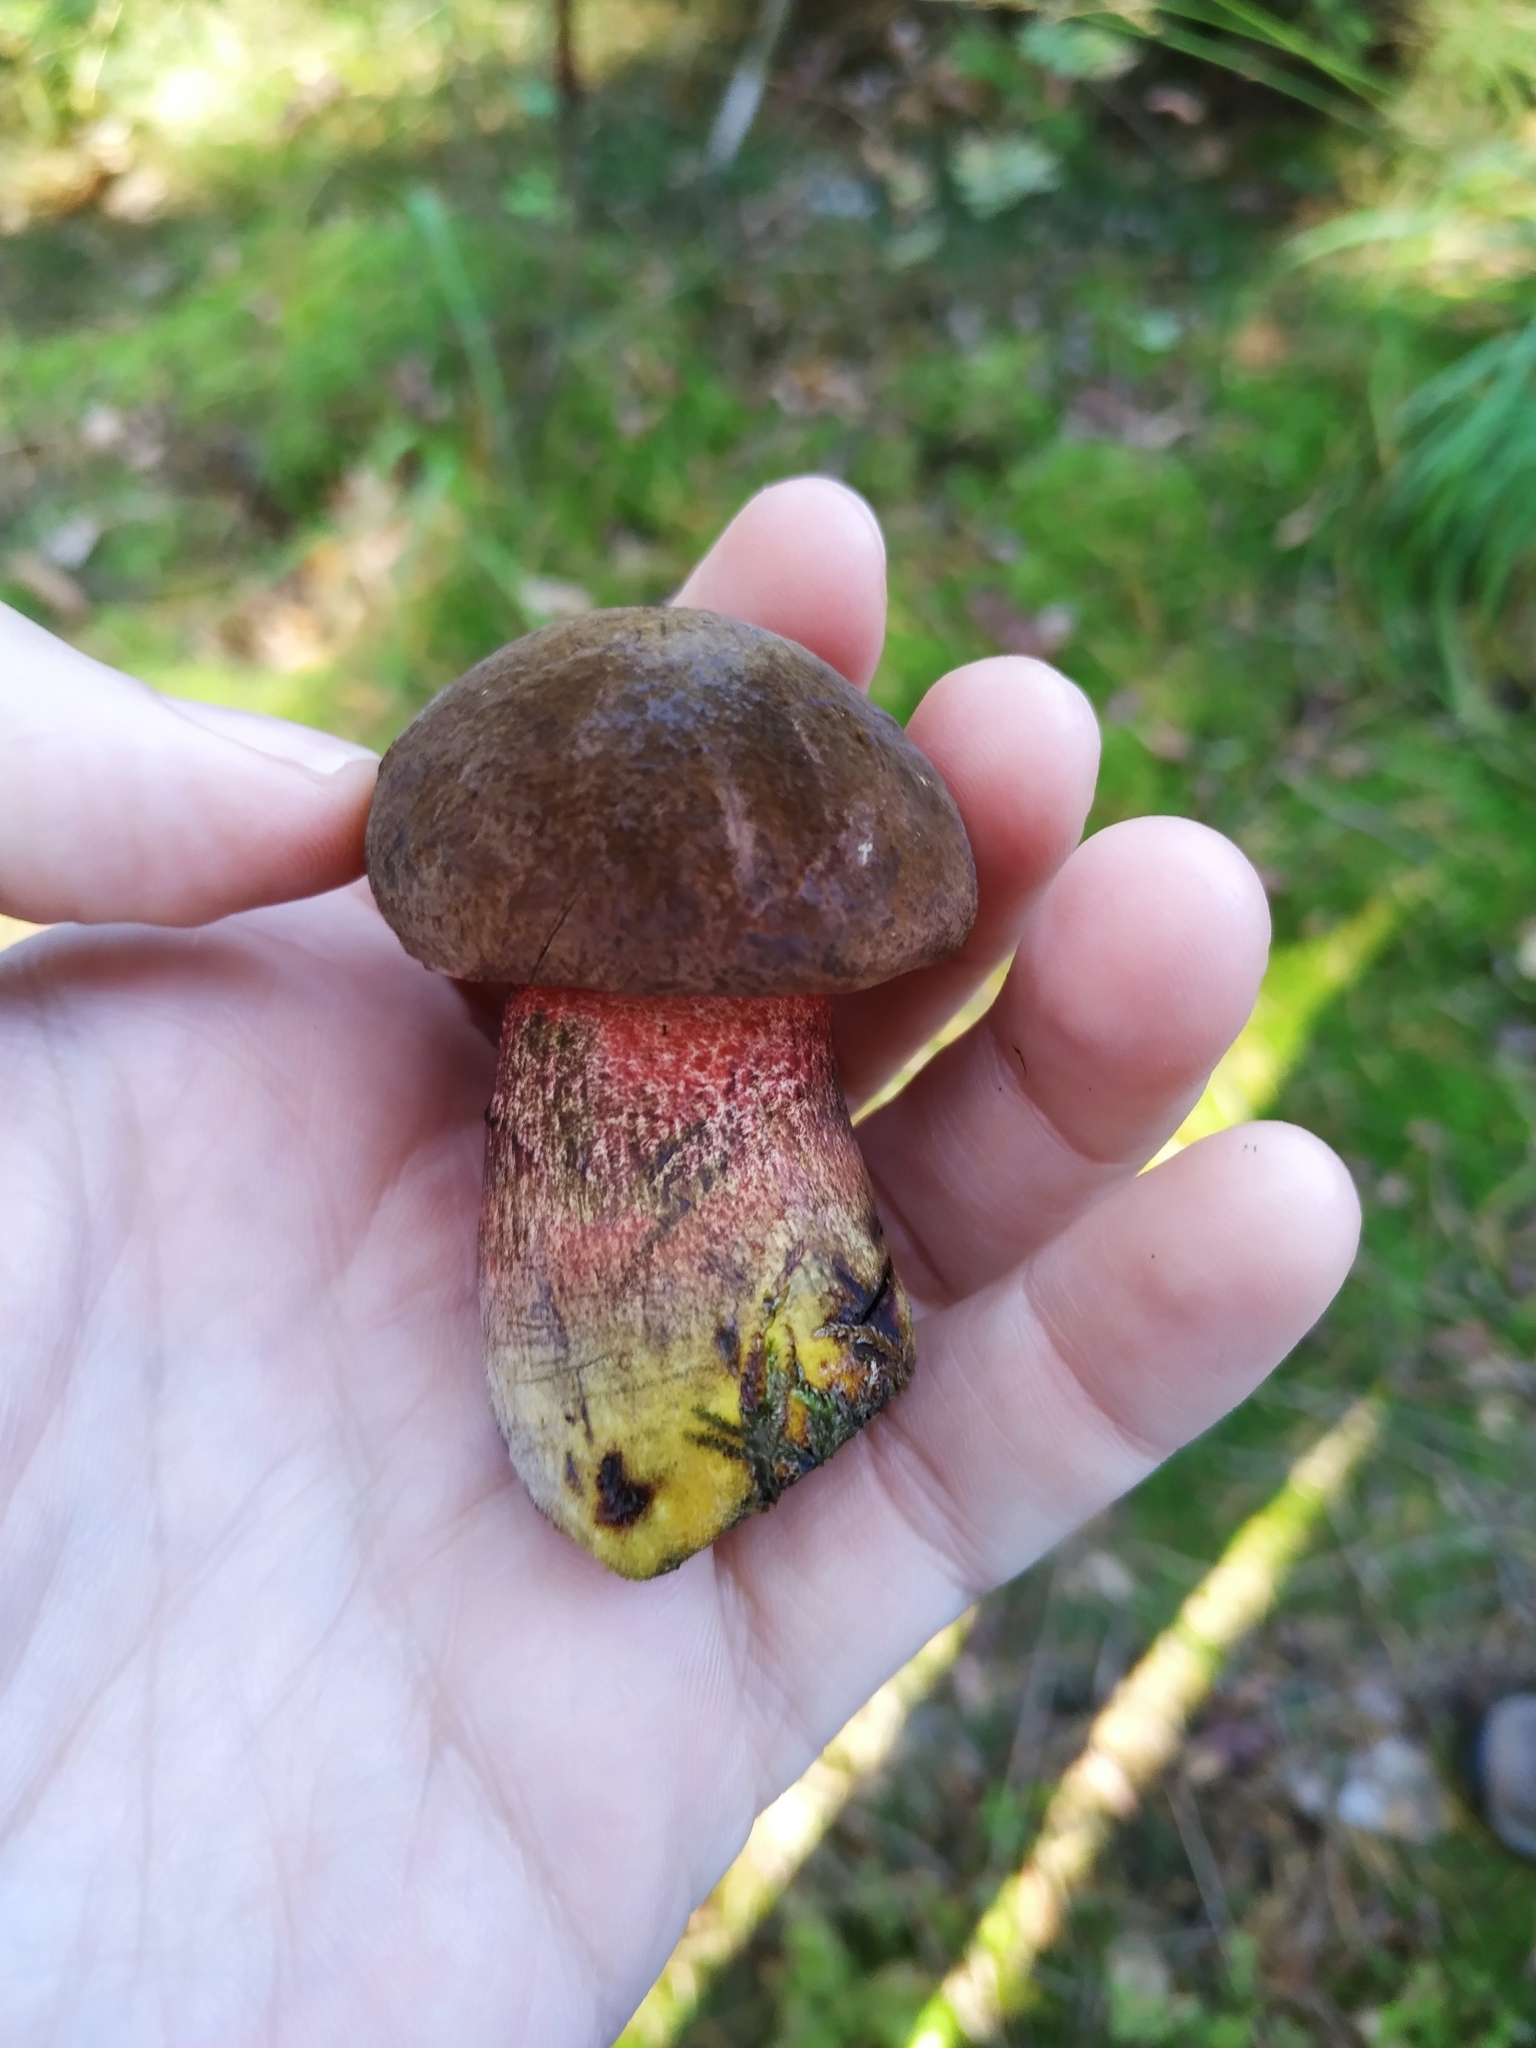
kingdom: Fungi
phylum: Basidiomycota
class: Agaricomycetes
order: Boletales
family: Boletaceae
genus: Neoboletus
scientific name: Neoboletus erythropus
